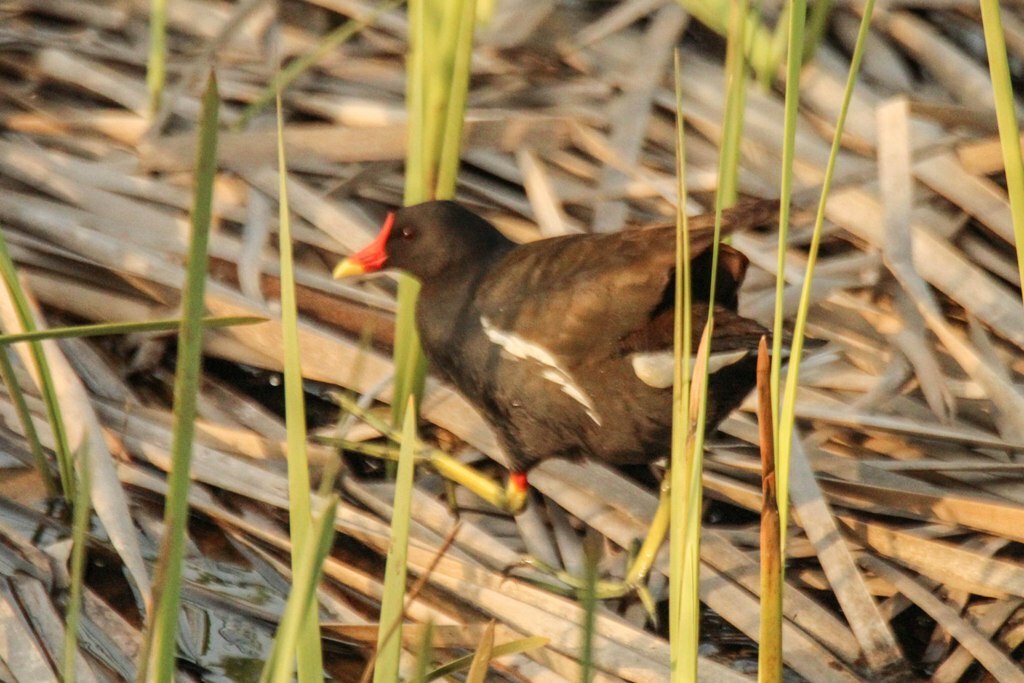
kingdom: Animalia
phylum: Chordata
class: Aves
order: Gruiformes
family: Rallidae
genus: Gallinula
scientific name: Gallinula chloropus
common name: Common moorhen
